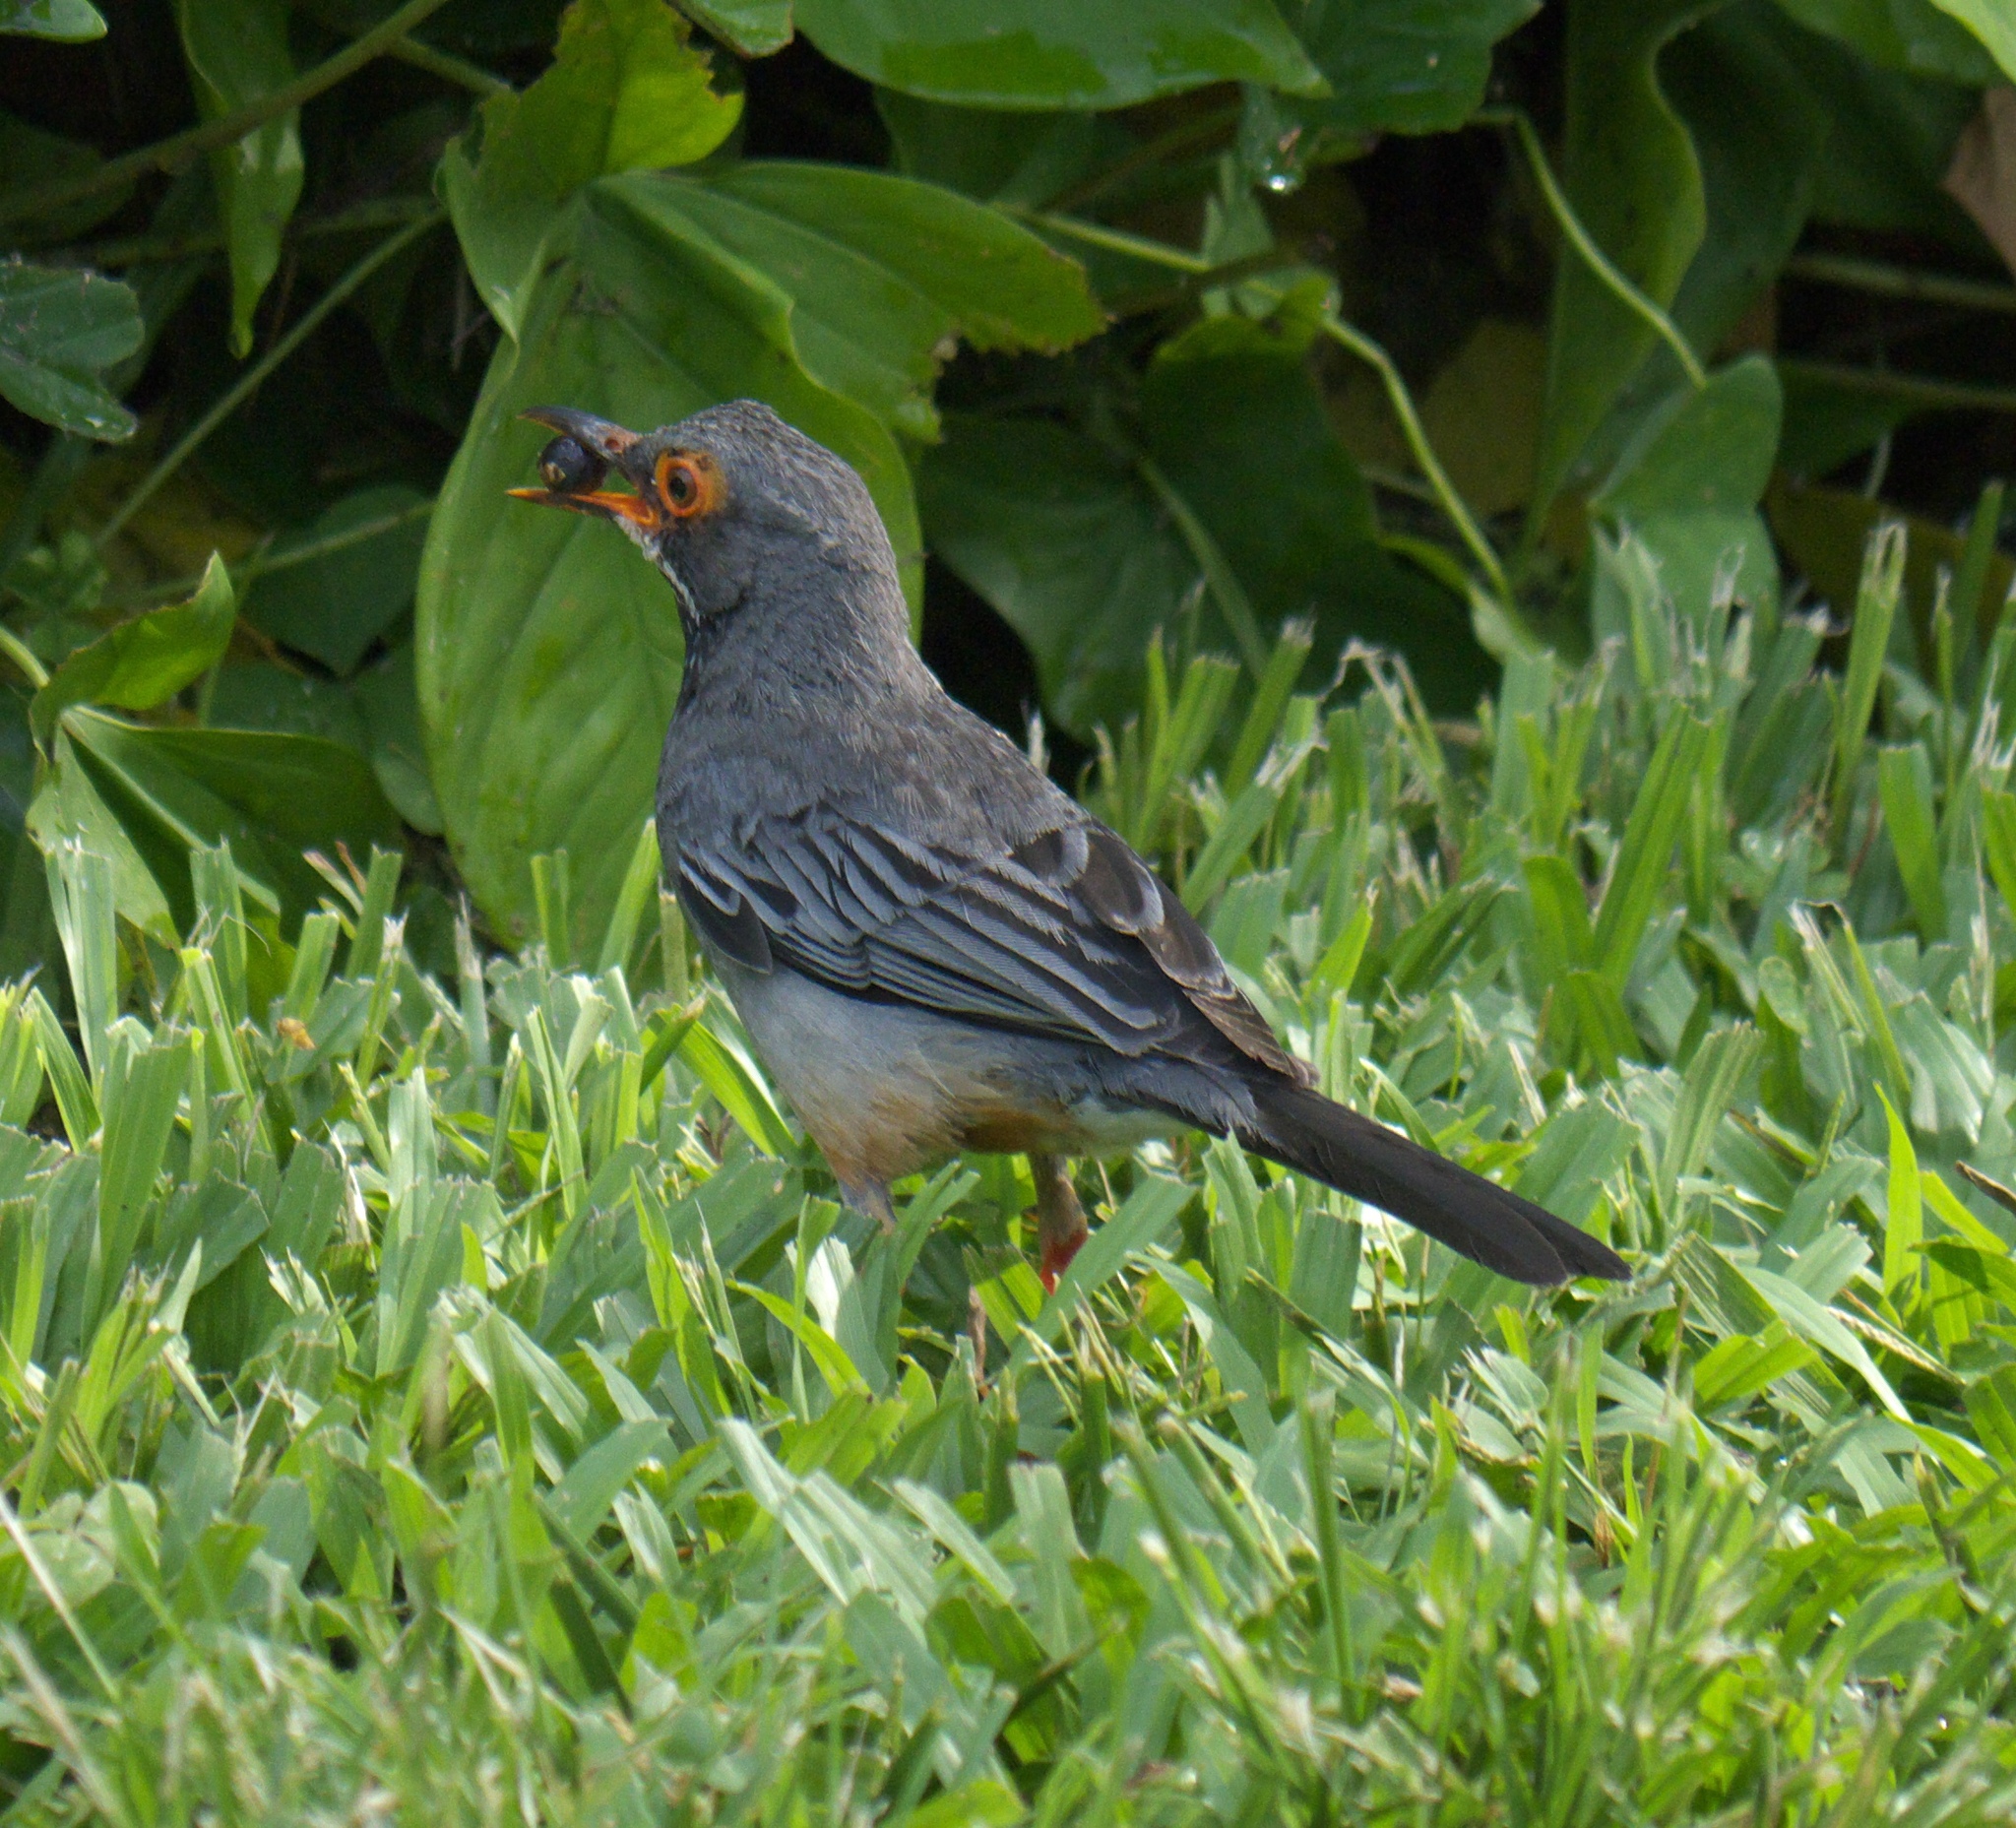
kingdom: Animalia
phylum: Chordata
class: Aves
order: Passeriformes
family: Turdidae
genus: Turdus
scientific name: Turdus plumbeus
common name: Red-legged thrush
